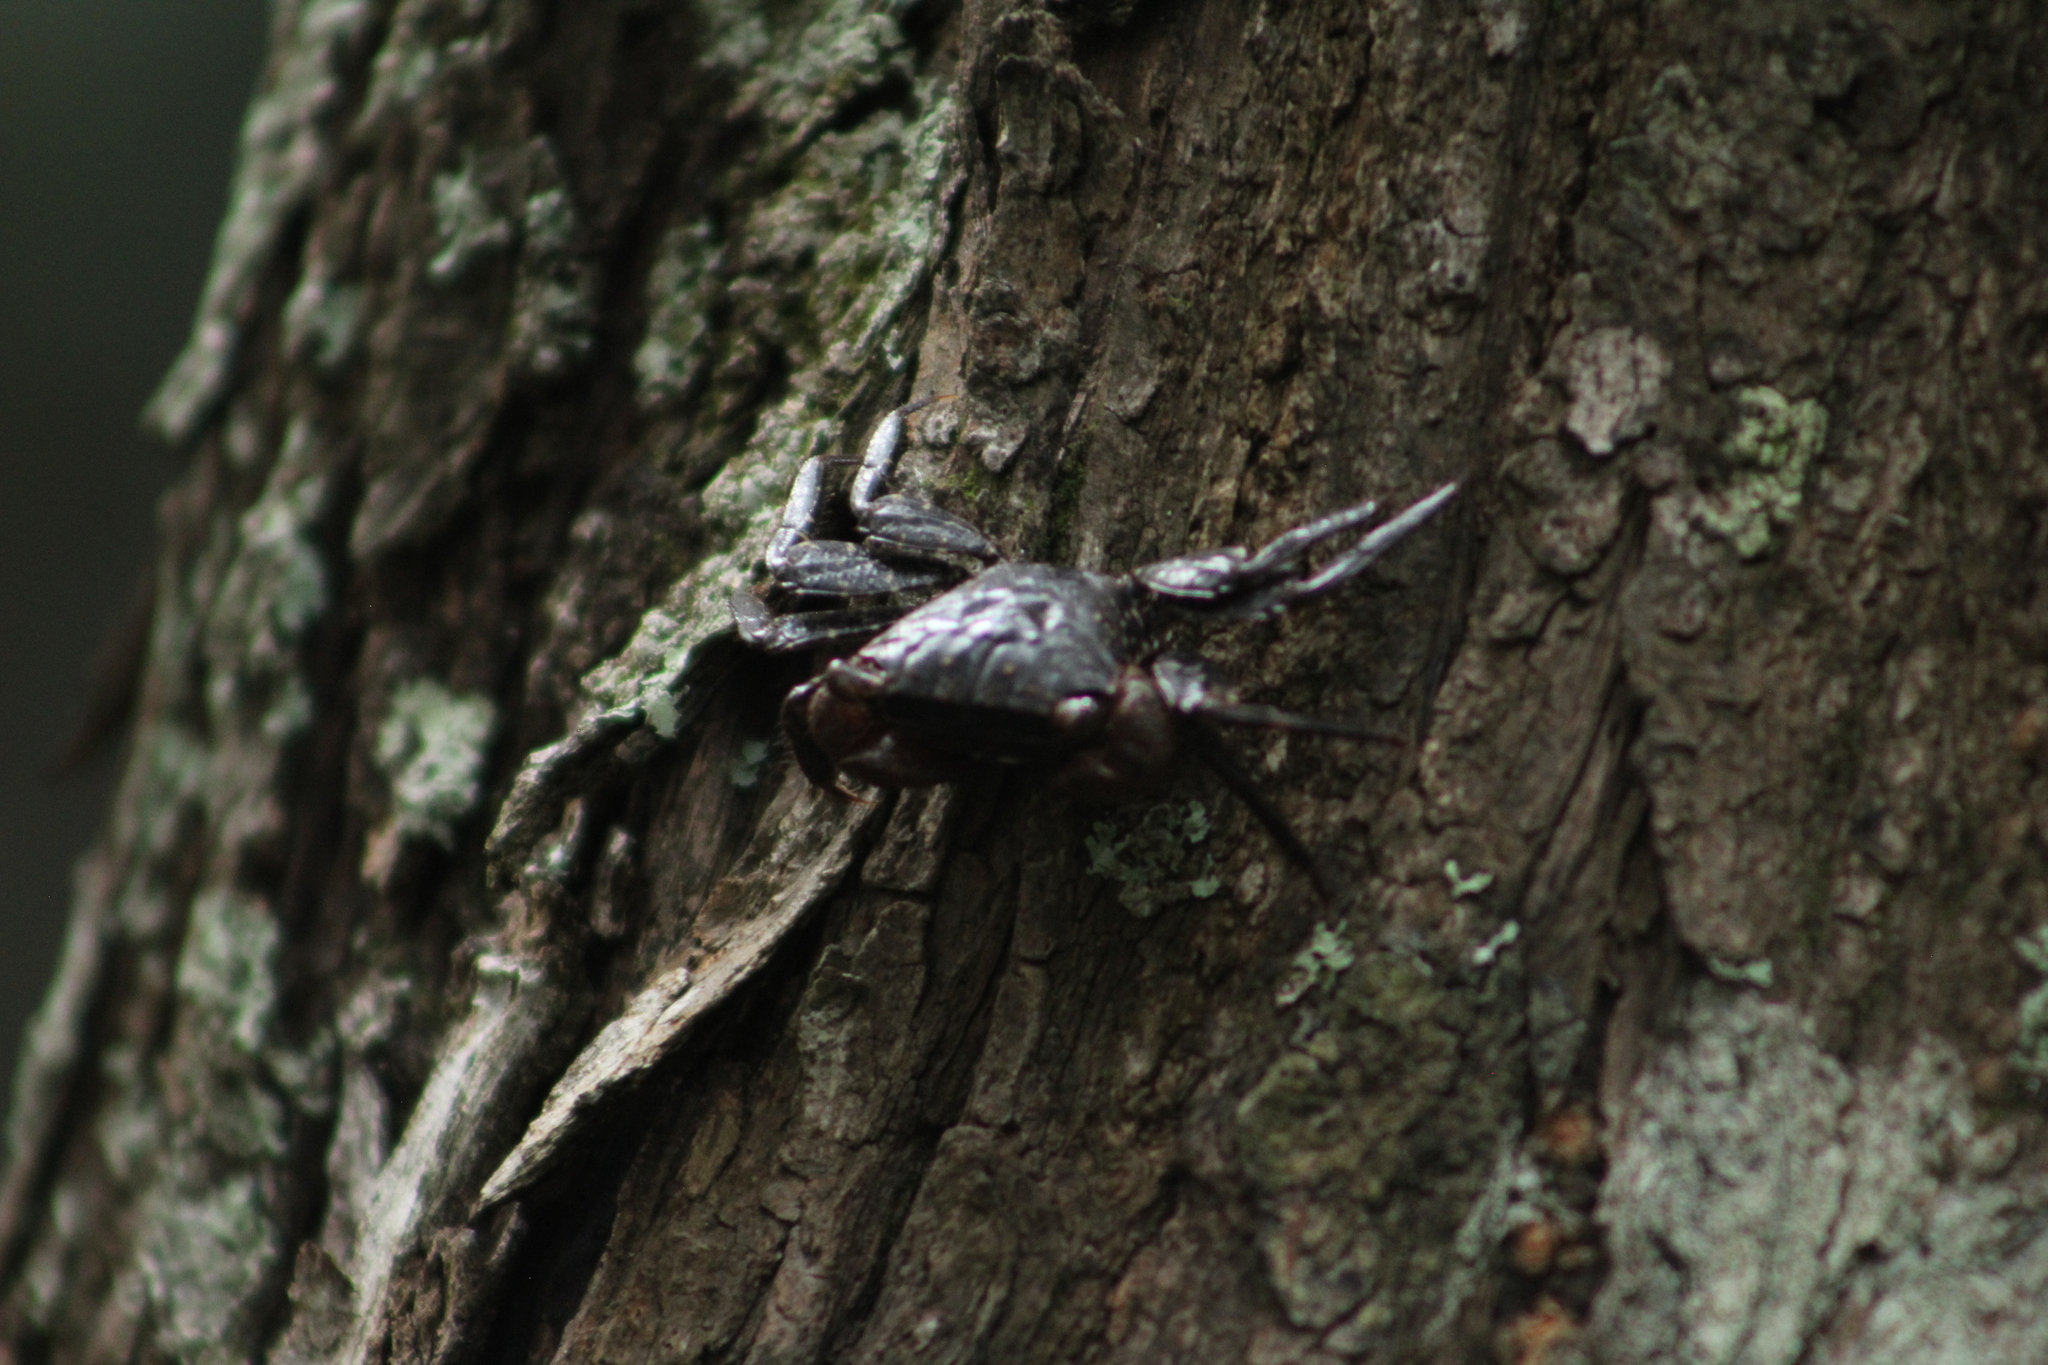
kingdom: Animalia
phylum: Arthropoda
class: Malacostraca
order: Decapoda
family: Sesarmidae
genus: Aratus
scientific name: Aratus pisonii
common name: Mangrove crab
